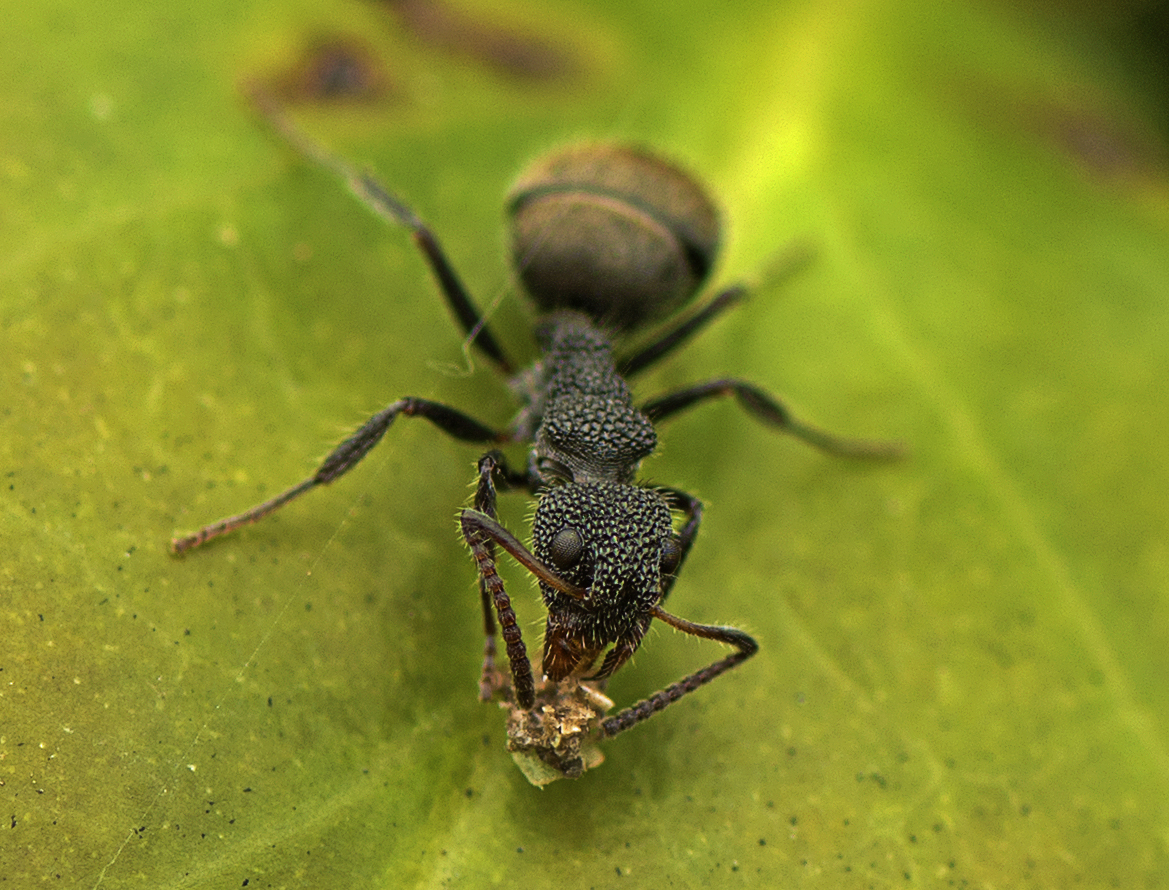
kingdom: Animalia
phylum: Arthropoda
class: Insecta
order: Hymenoptera
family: Formicidae
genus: Dolichoderus
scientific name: Dolichoderus scrobiculatus
